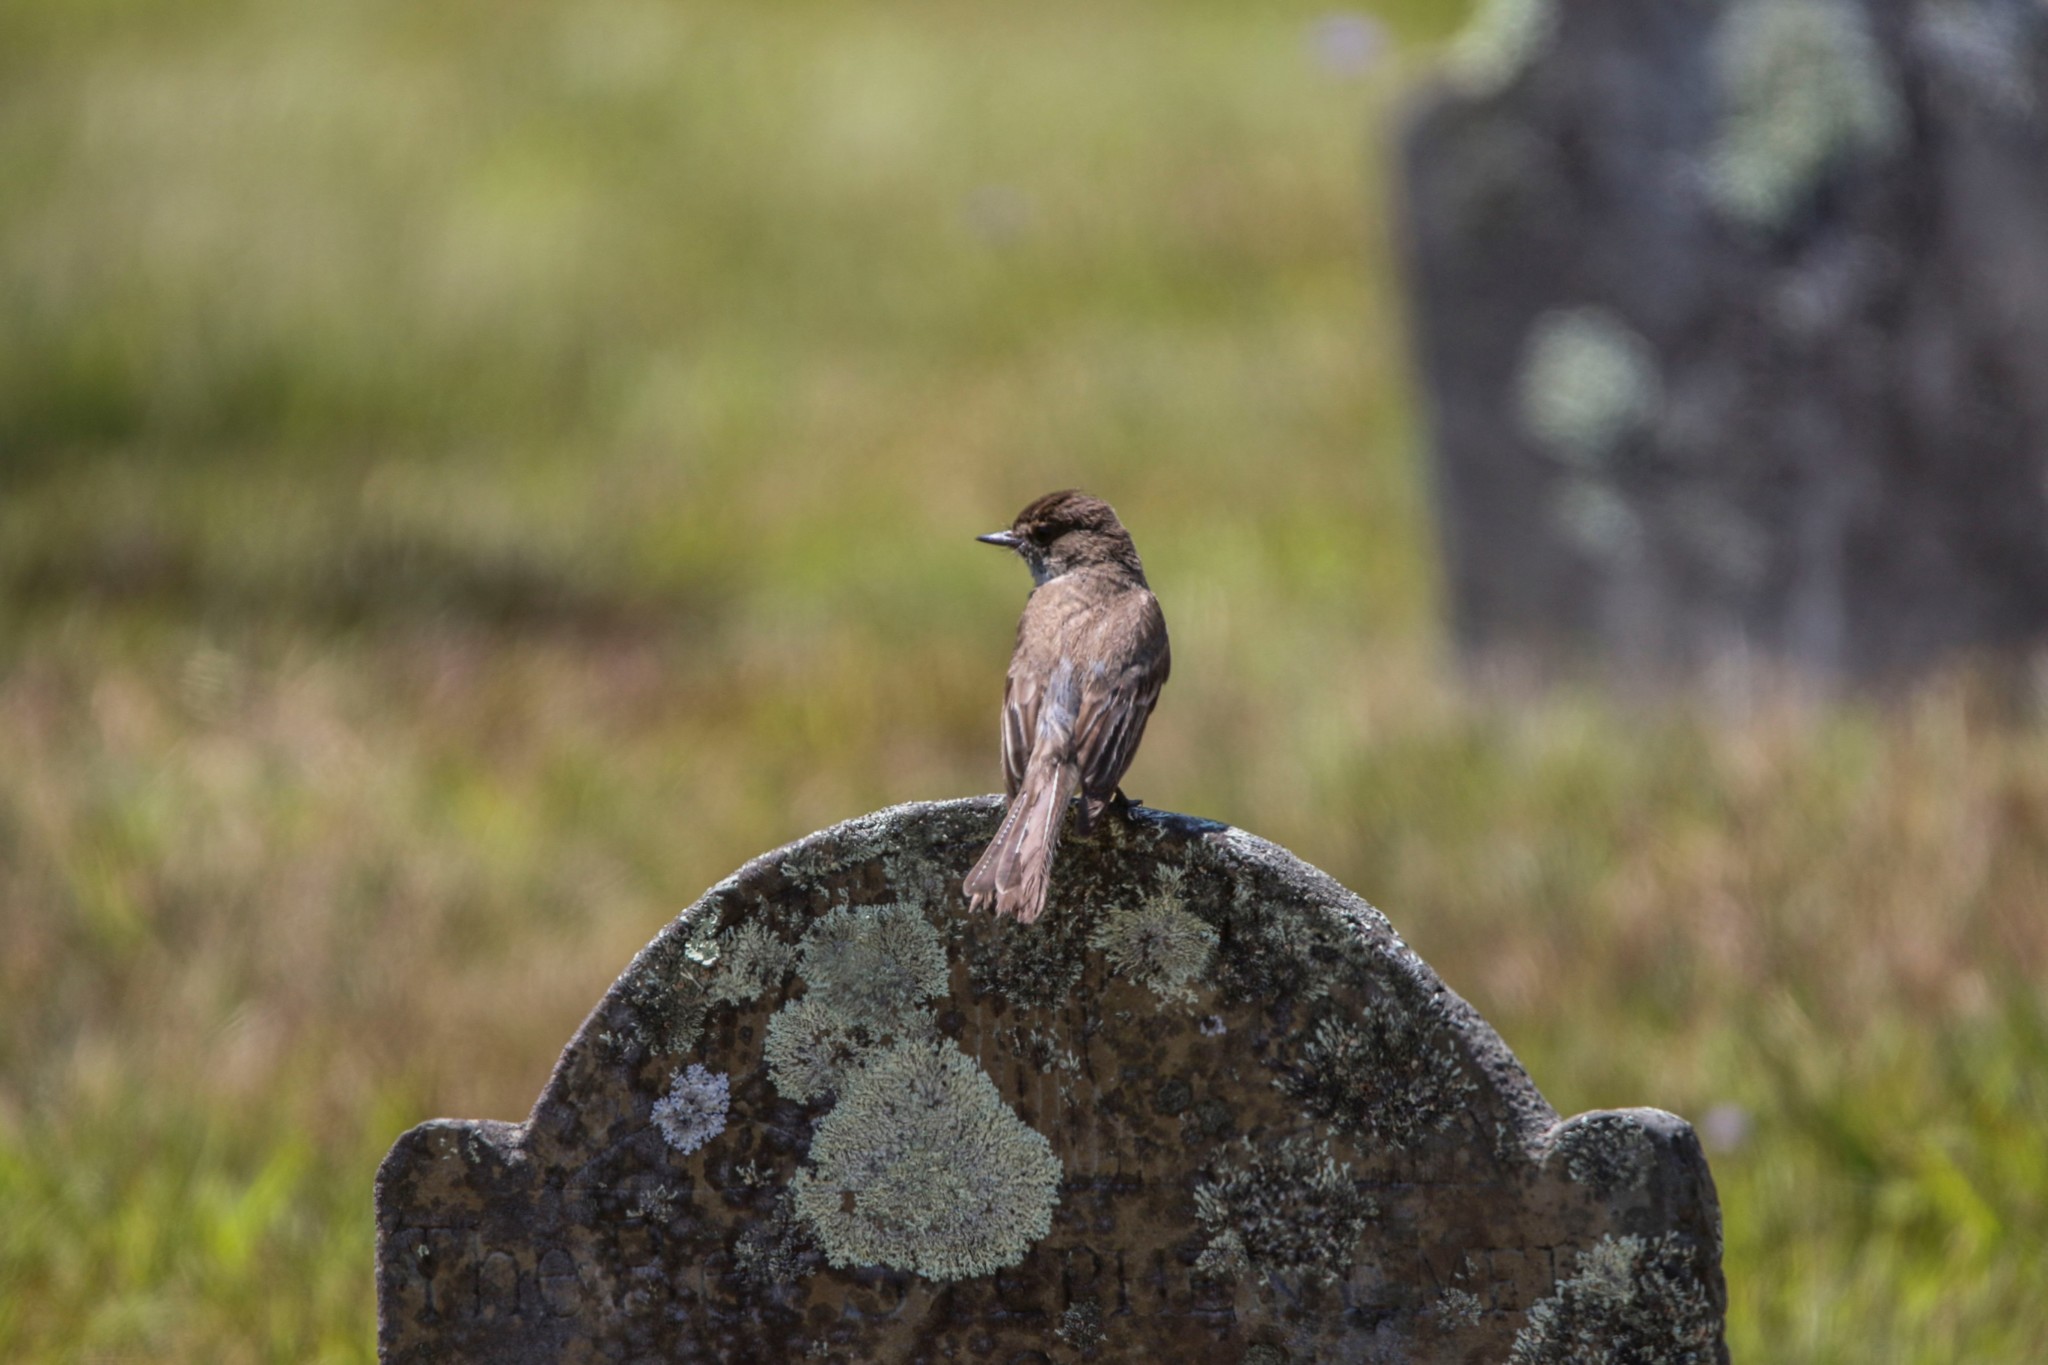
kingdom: Animalia
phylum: Chordata
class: Aves
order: Passeriformes
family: Tyrannidae
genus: Sayornis
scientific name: Sayornis phoebe
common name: Eastern phoebe
